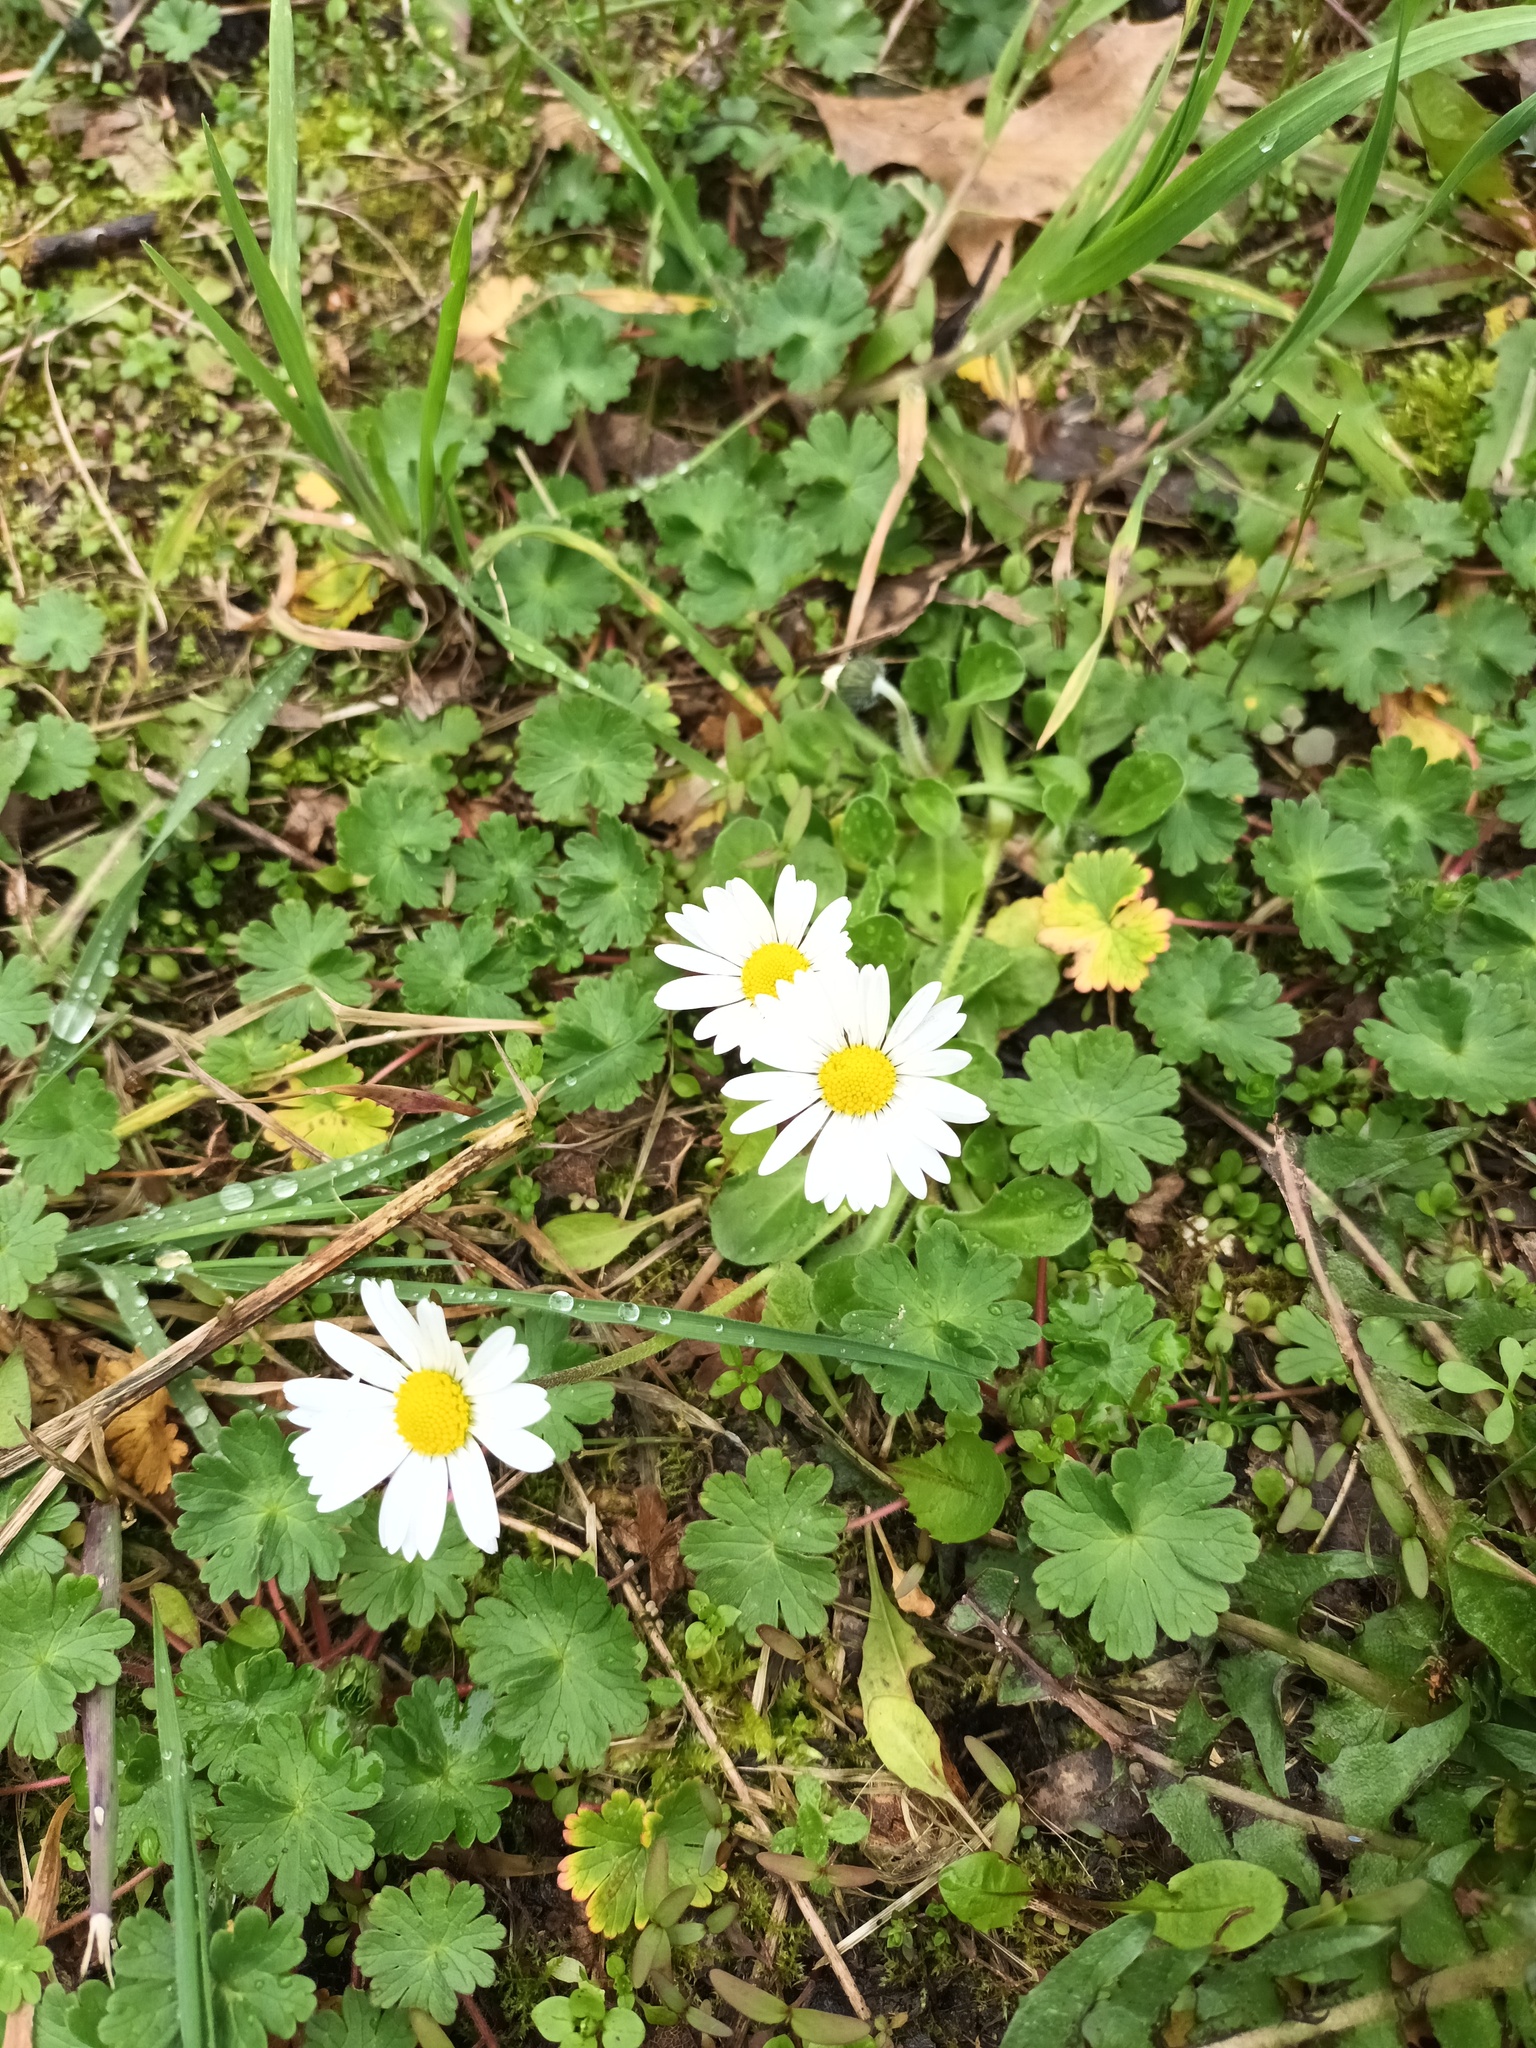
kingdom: Plantae
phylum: Tracheophyta
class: Magnoliopsida
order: Asterales
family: Asteraceae
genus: Bellis
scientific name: Bellis perennis
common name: Lawndaisy
